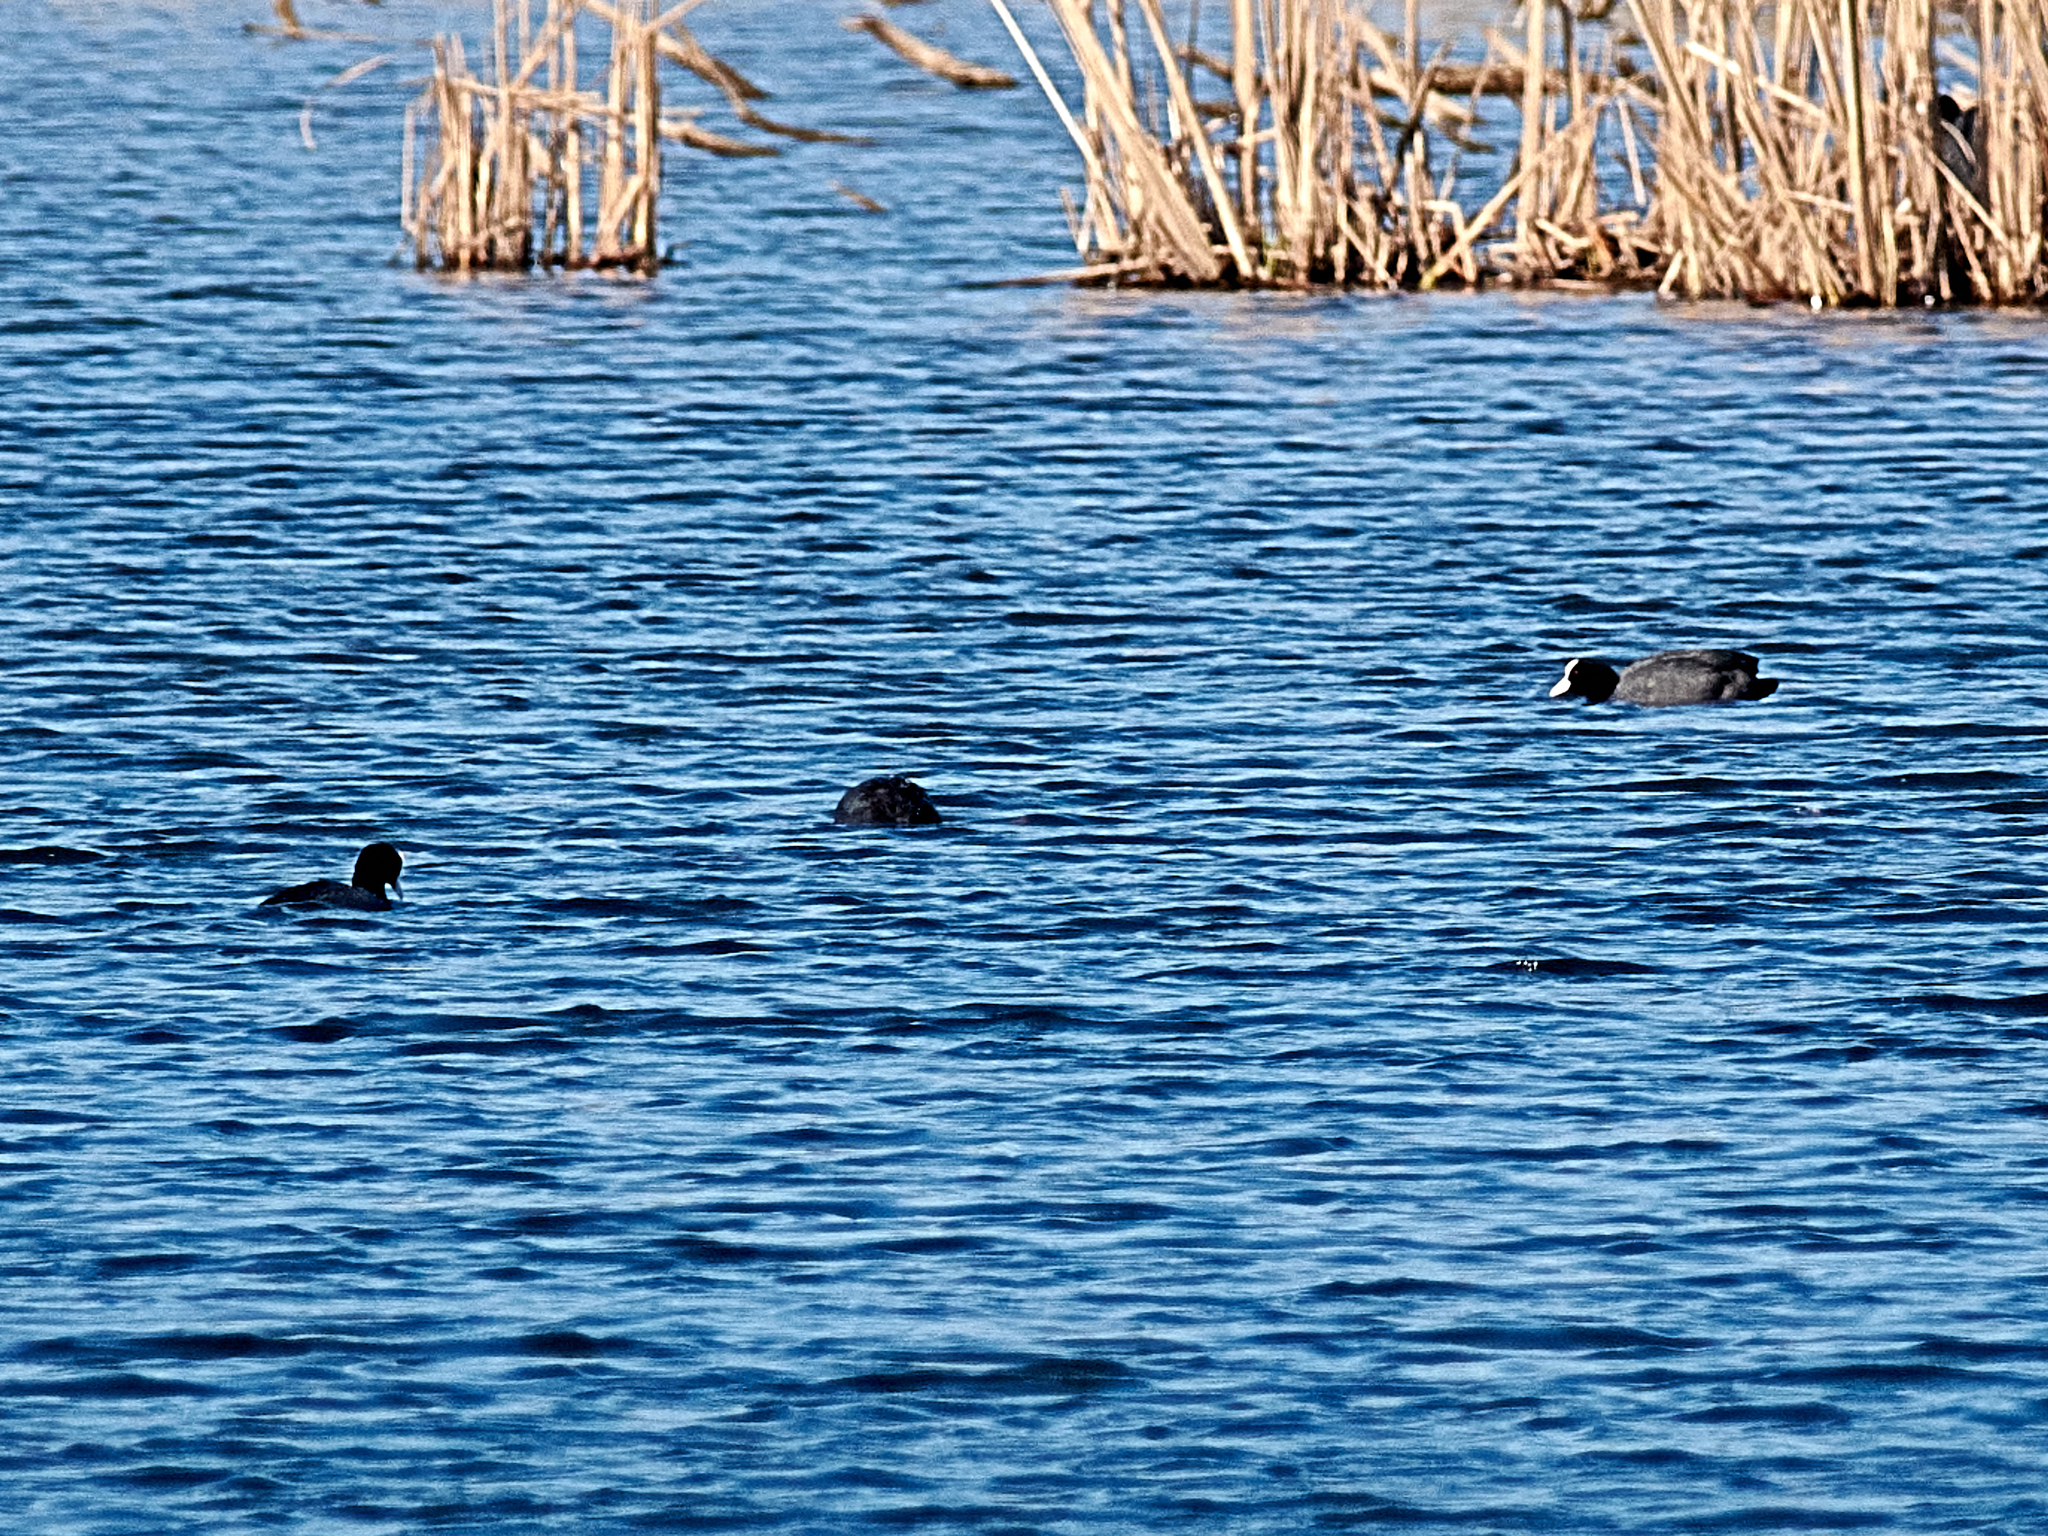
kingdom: Animalia
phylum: Chordata
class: Aves
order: Gruiformes
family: Rallidae
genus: Fulica
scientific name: Fulica atra
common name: Eurasian coot
